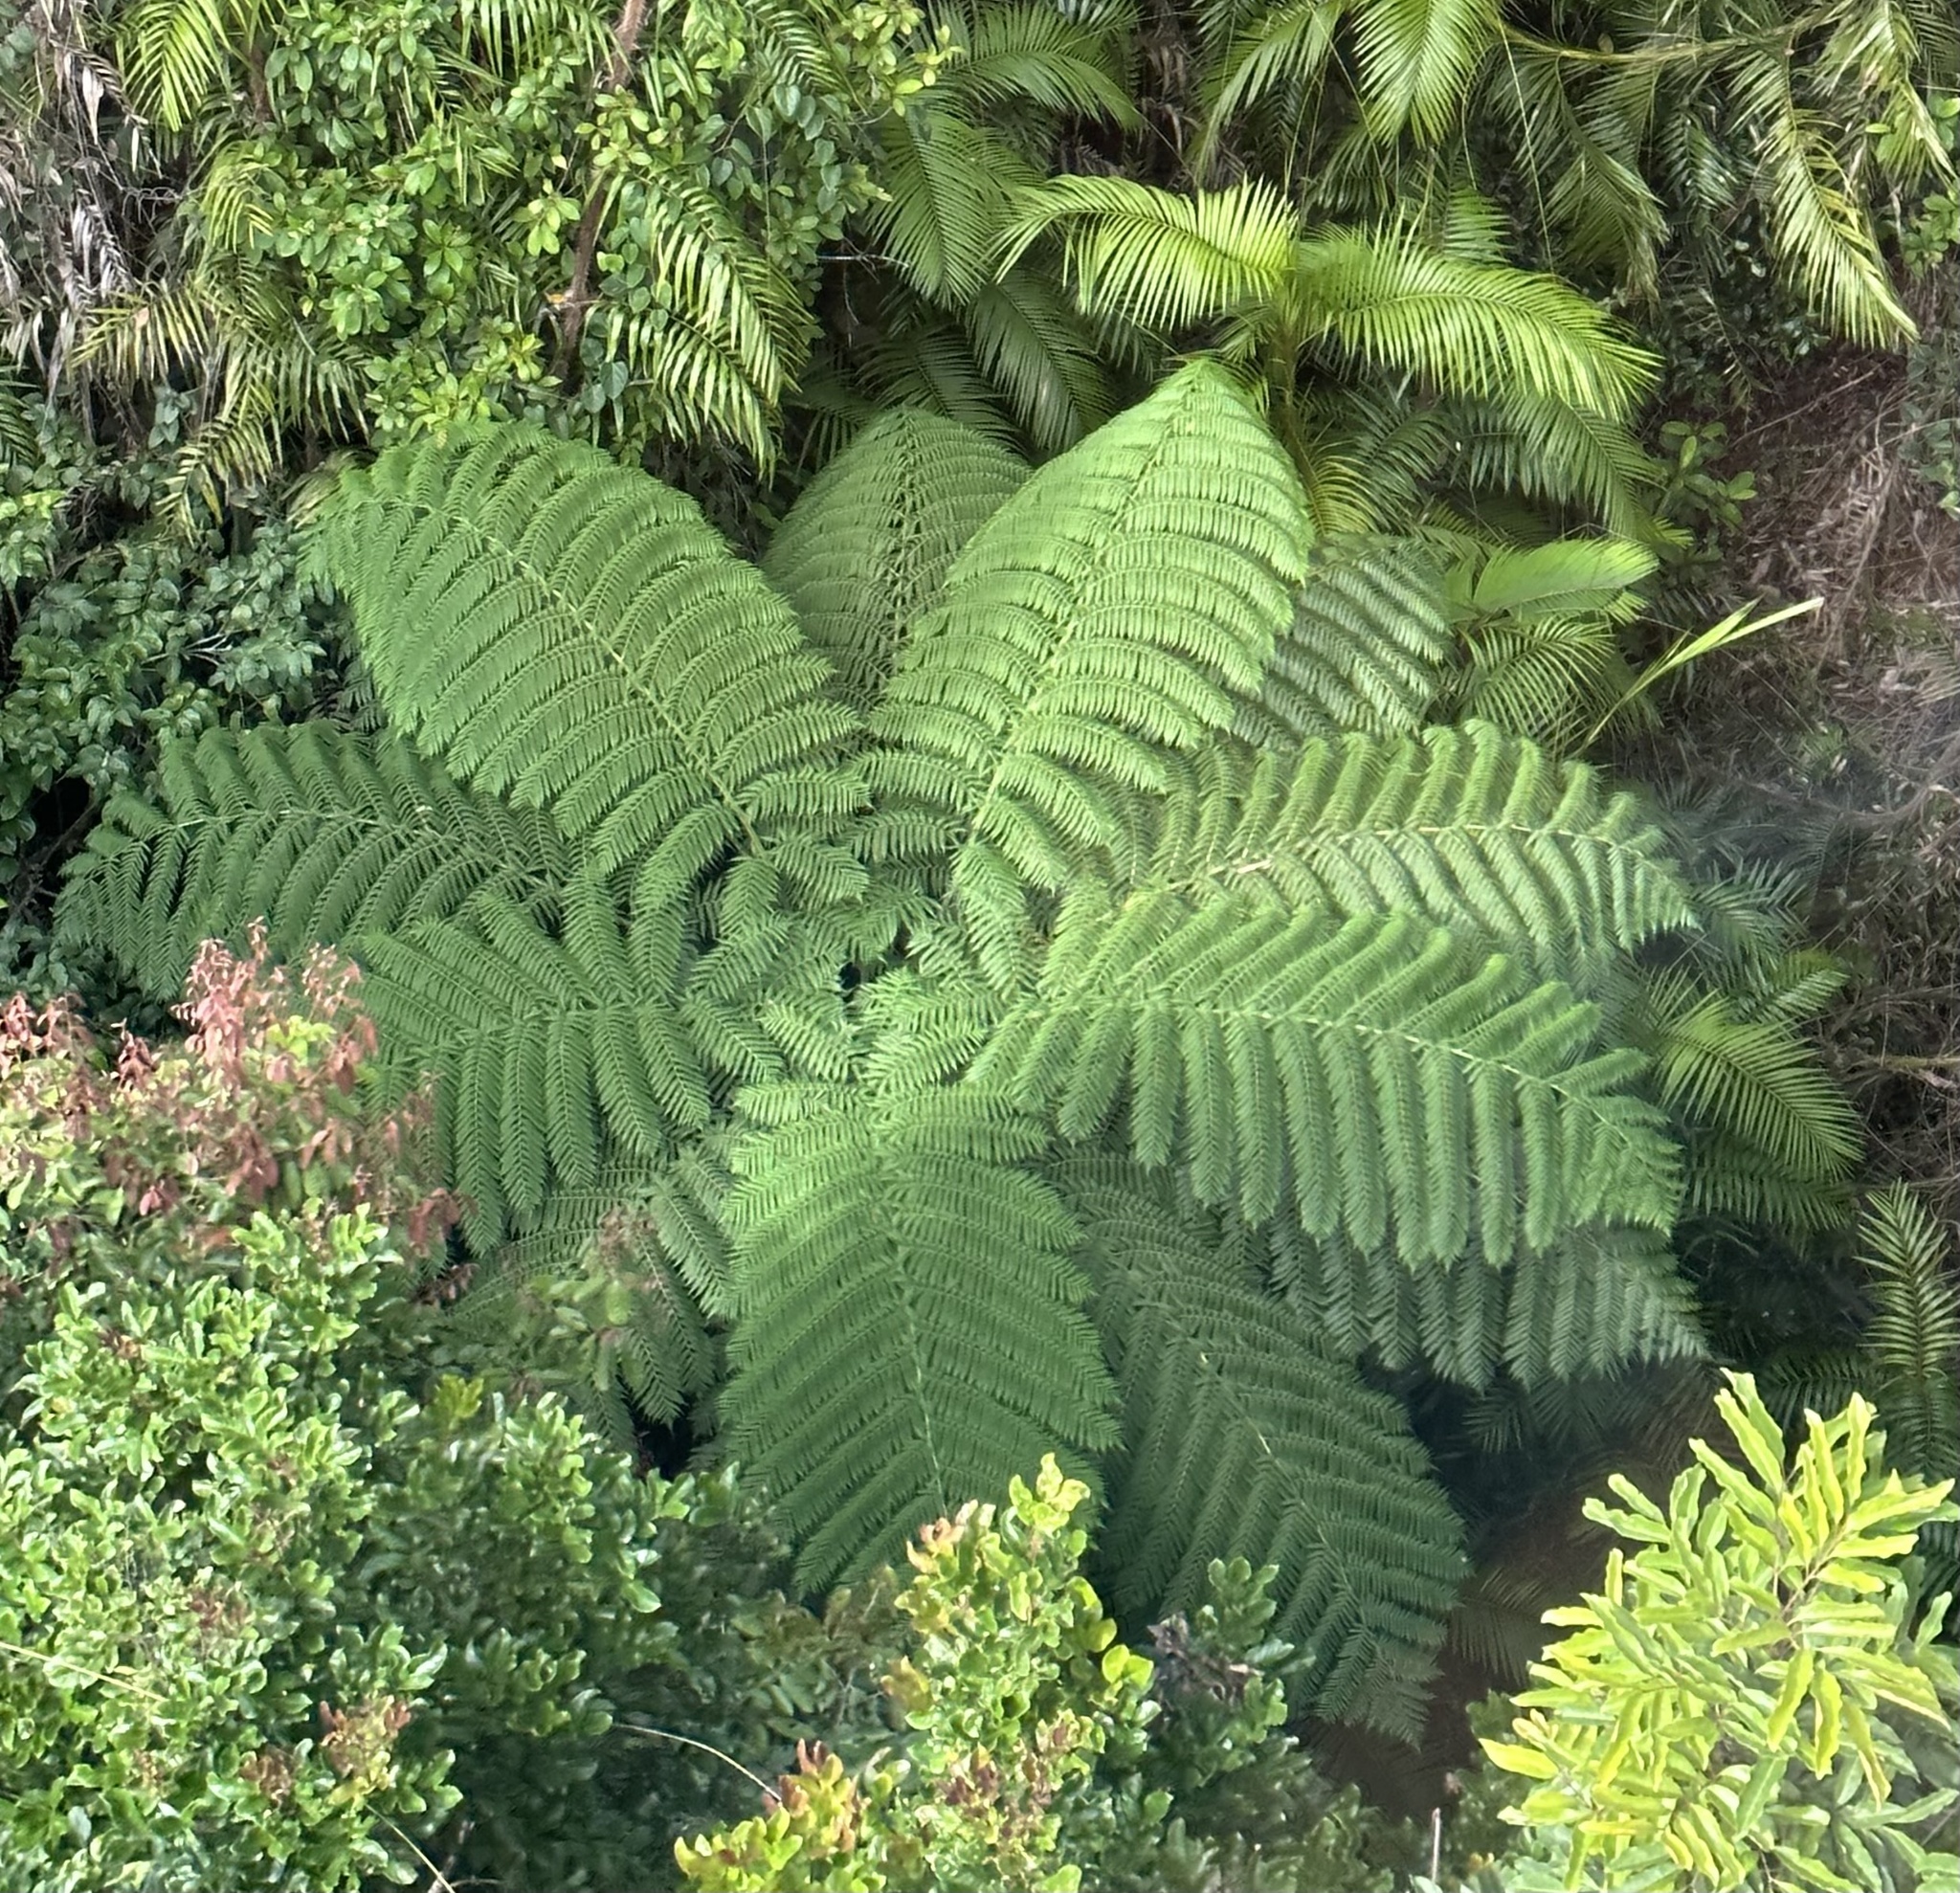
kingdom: Plantae
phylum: Tracheophyta
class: Polypodiopsida
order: Cyatheales
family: Cyatheaceae
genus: Sphaeropteris
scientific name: Sphaeropteris cooperi
